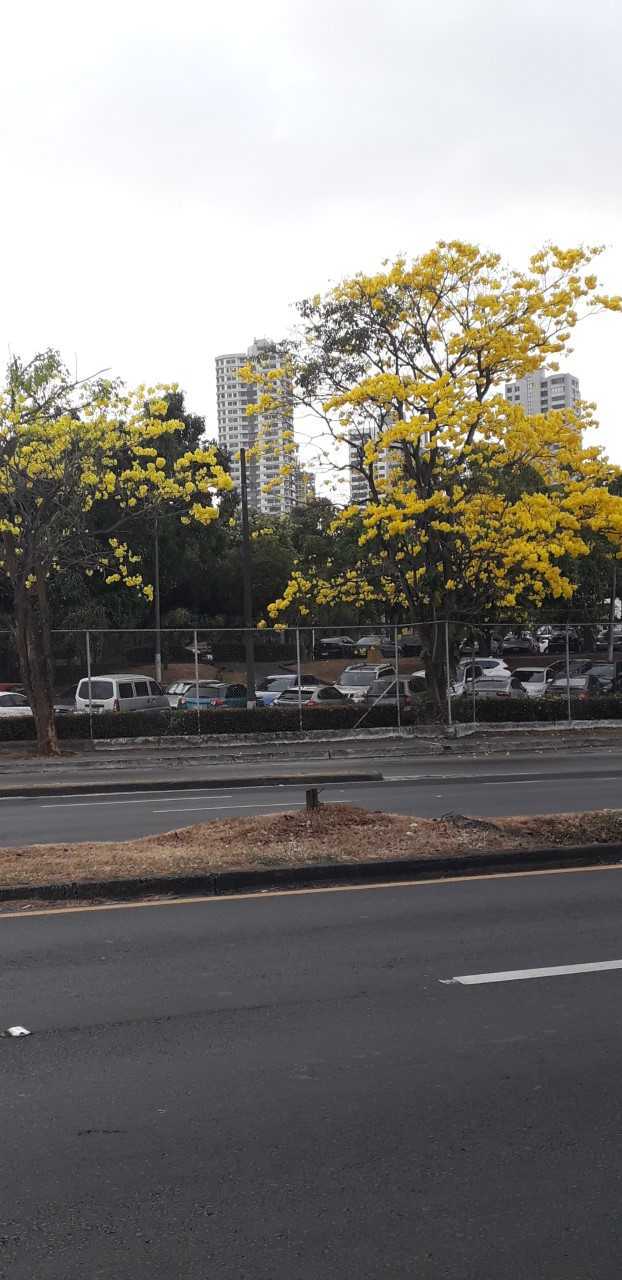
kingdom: Plantae
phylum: Tracheophyta
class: Magnoliopsida
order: Lamiales
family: Bignoniaceae
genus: Handroanthus
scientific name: Handroanthus guayacan
